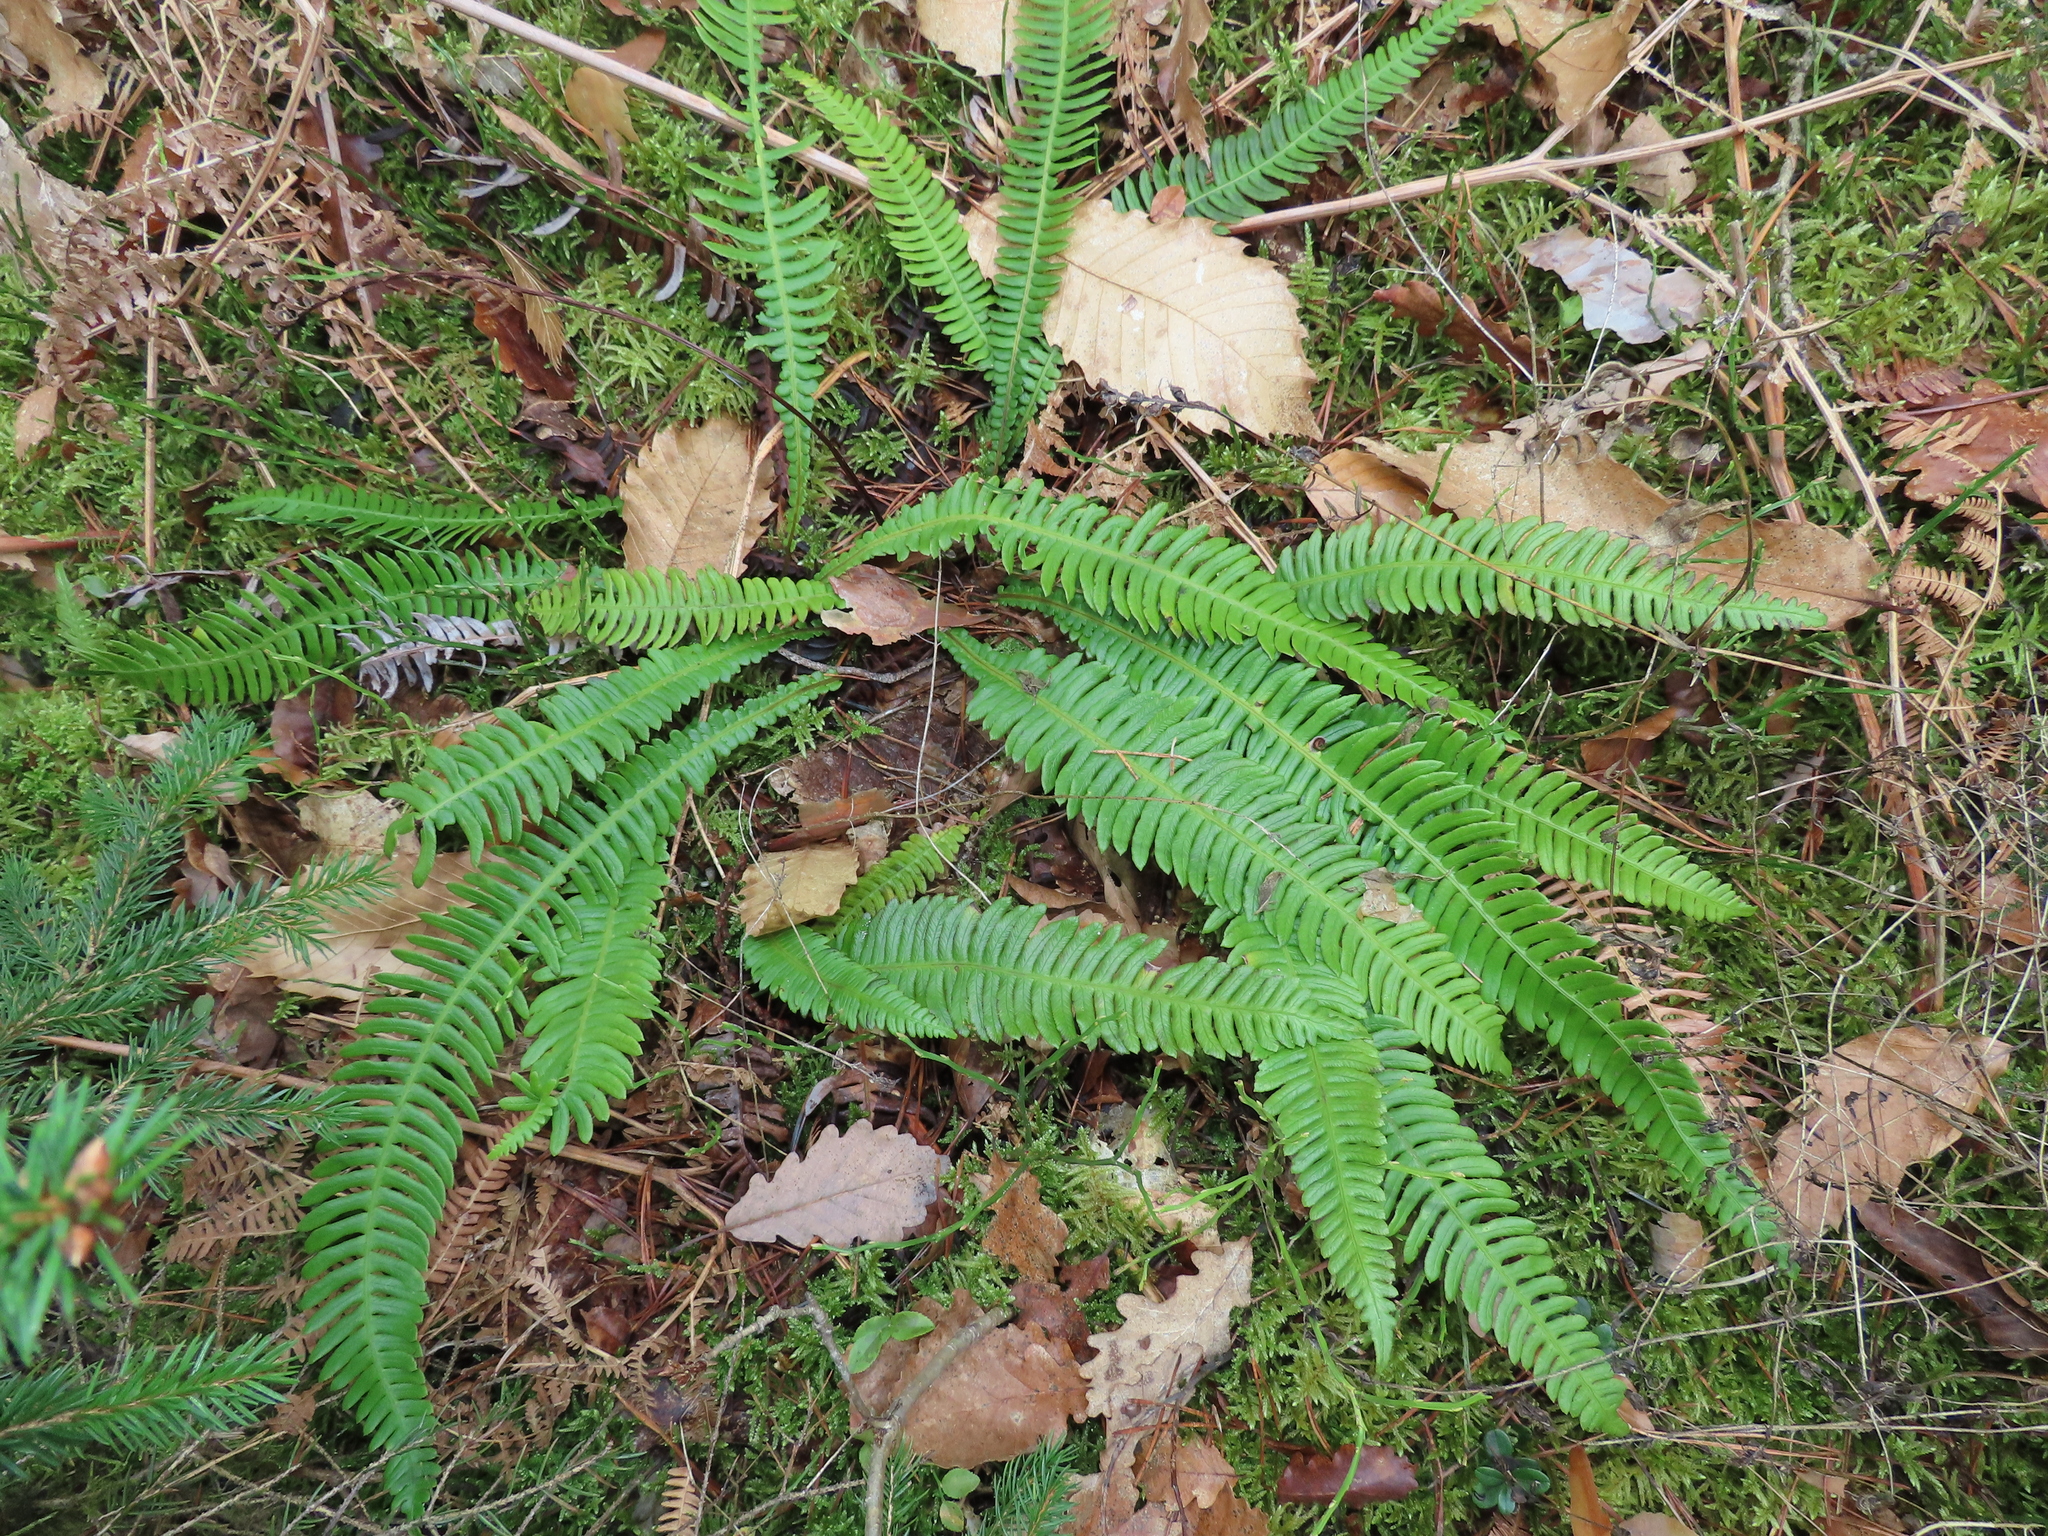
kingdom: Plantae
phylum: Tracheophyta
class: Polypodiopsida
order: Polypodiales
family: Blechnaceae
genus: Struthiopteris
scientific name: Struthiopteris spicant
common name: Deer fern
